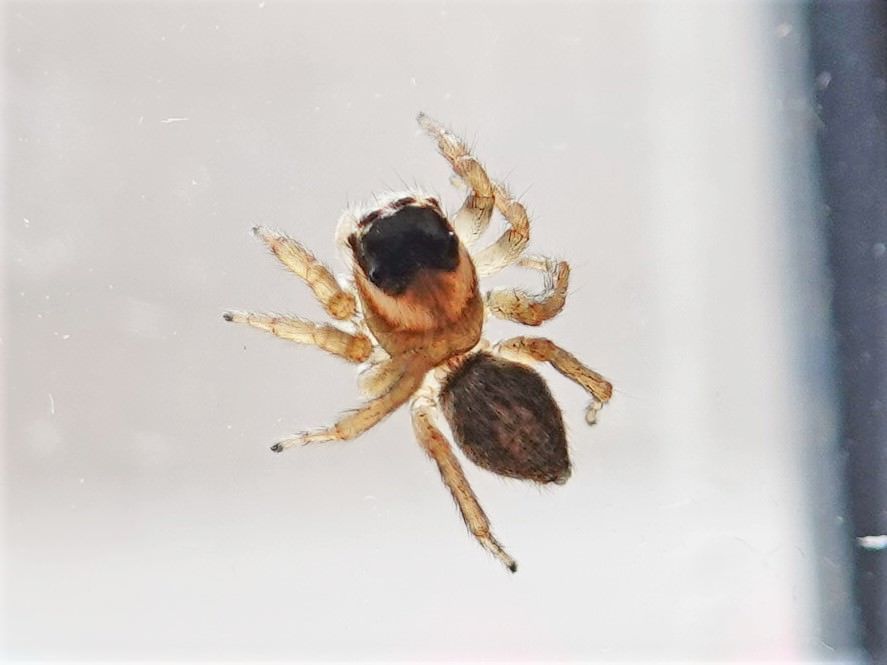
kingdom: Animalia
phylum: Arthropoda
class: Arachnida
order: Araneae
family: Salticidae
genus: Maratus
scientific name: Maratus griseus
